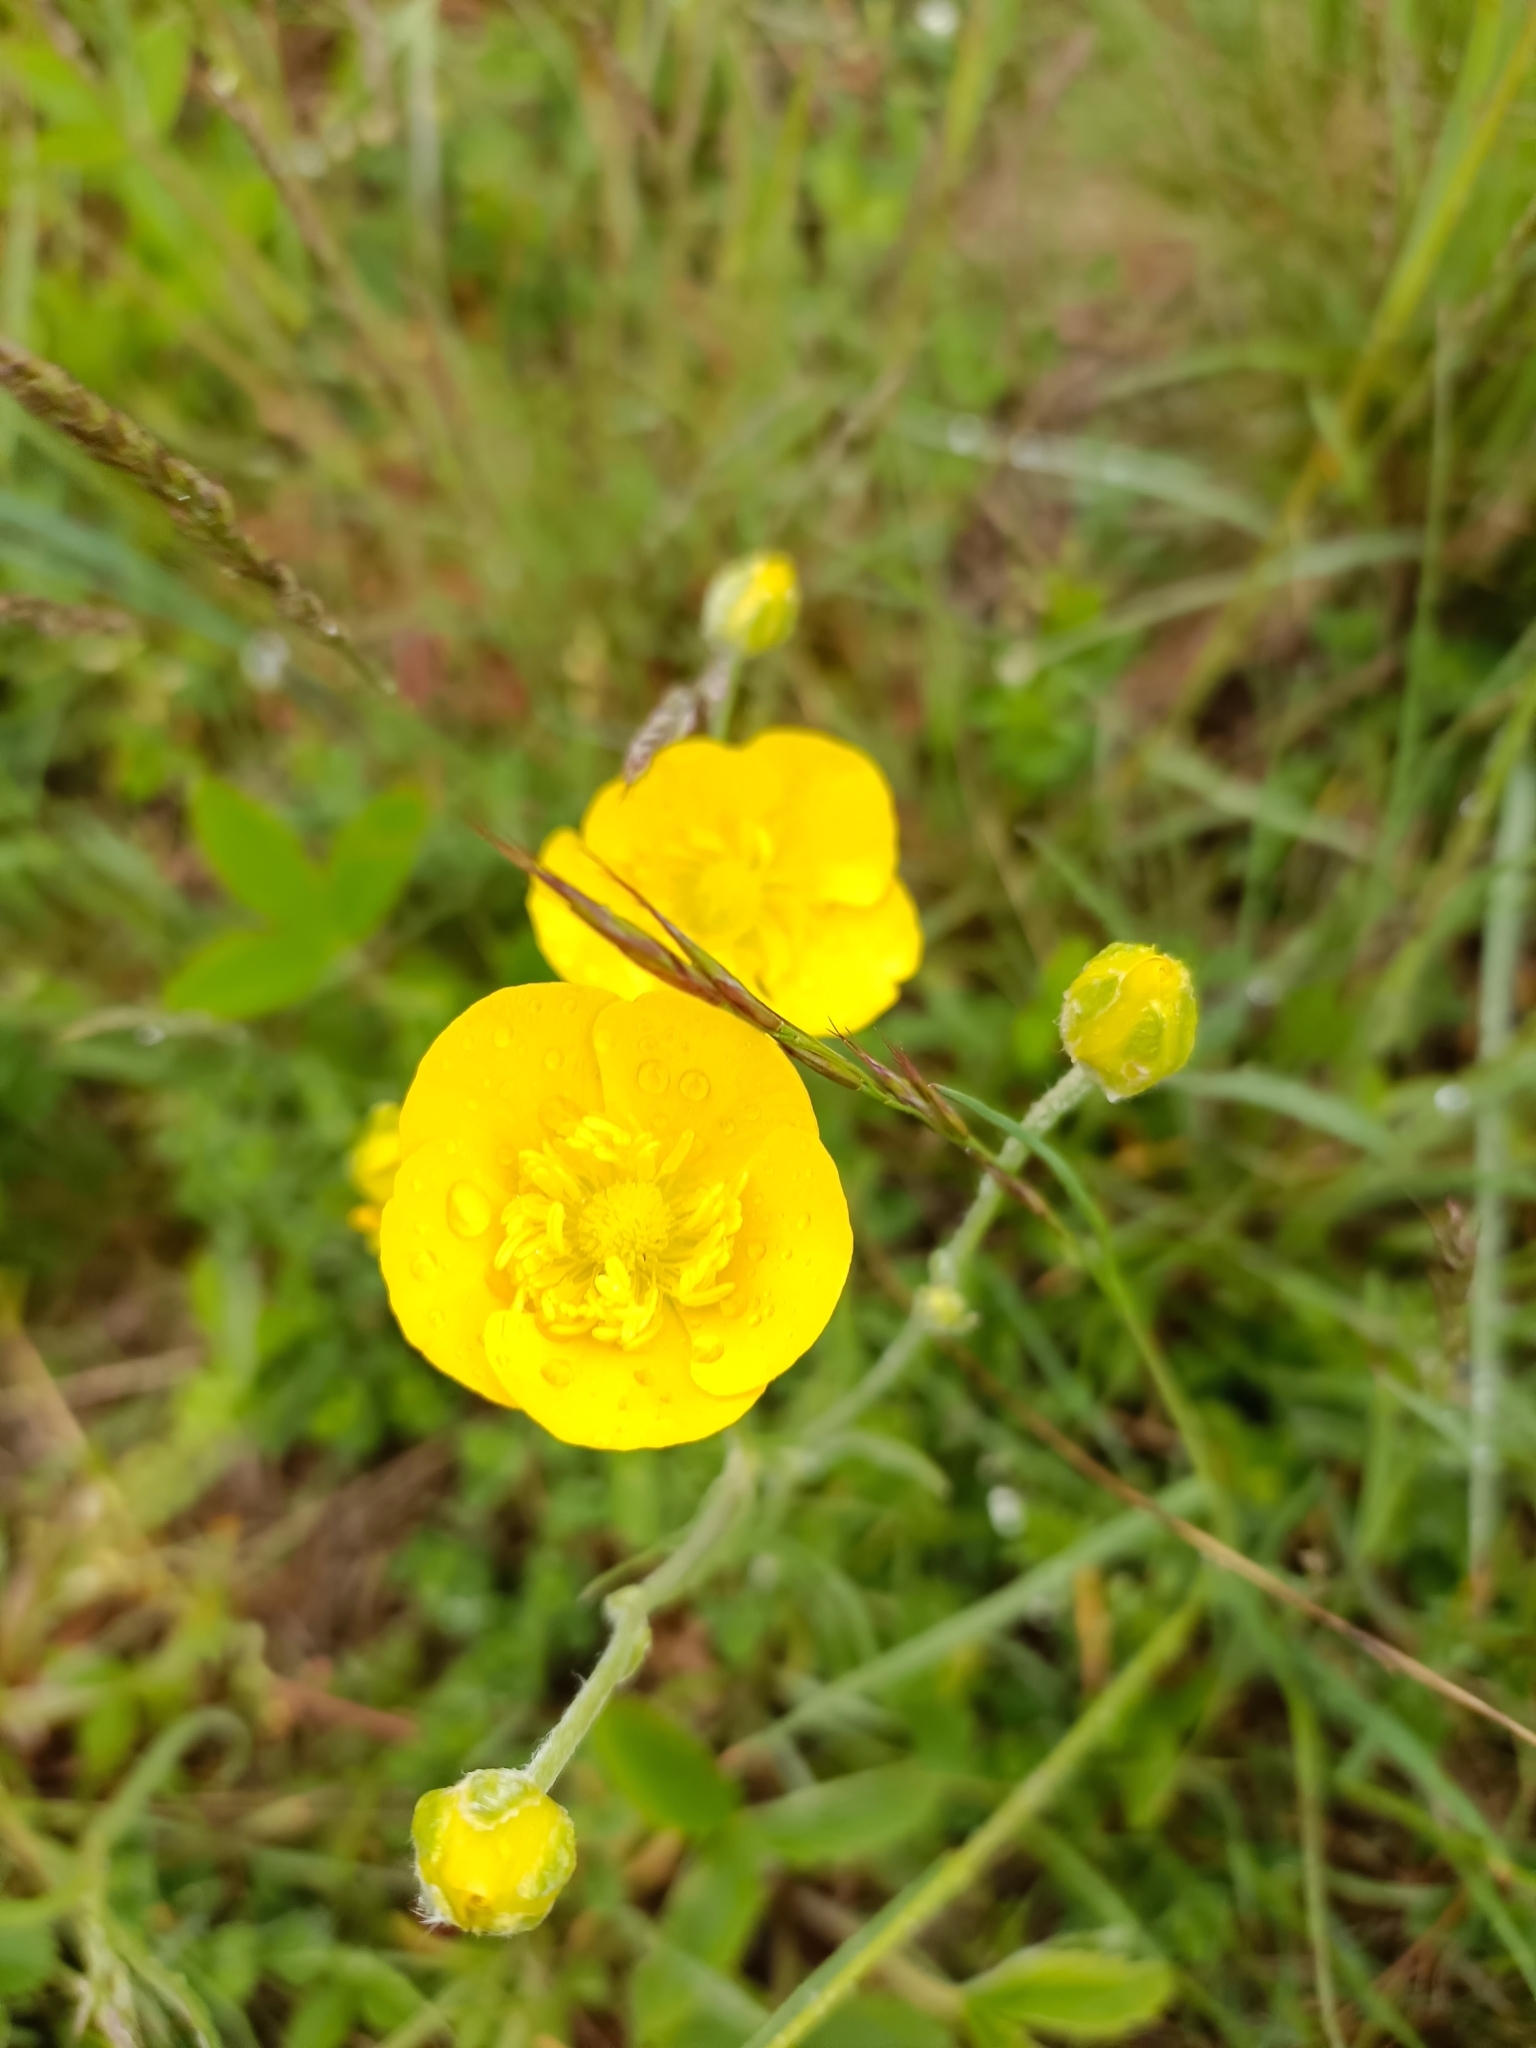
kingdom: Plantae
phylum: Tracheophyta
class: Magnoliopsida
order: Ranunculales
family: Ranunculaceae
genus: Ranunculus
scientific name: Ranunculus illyricus
